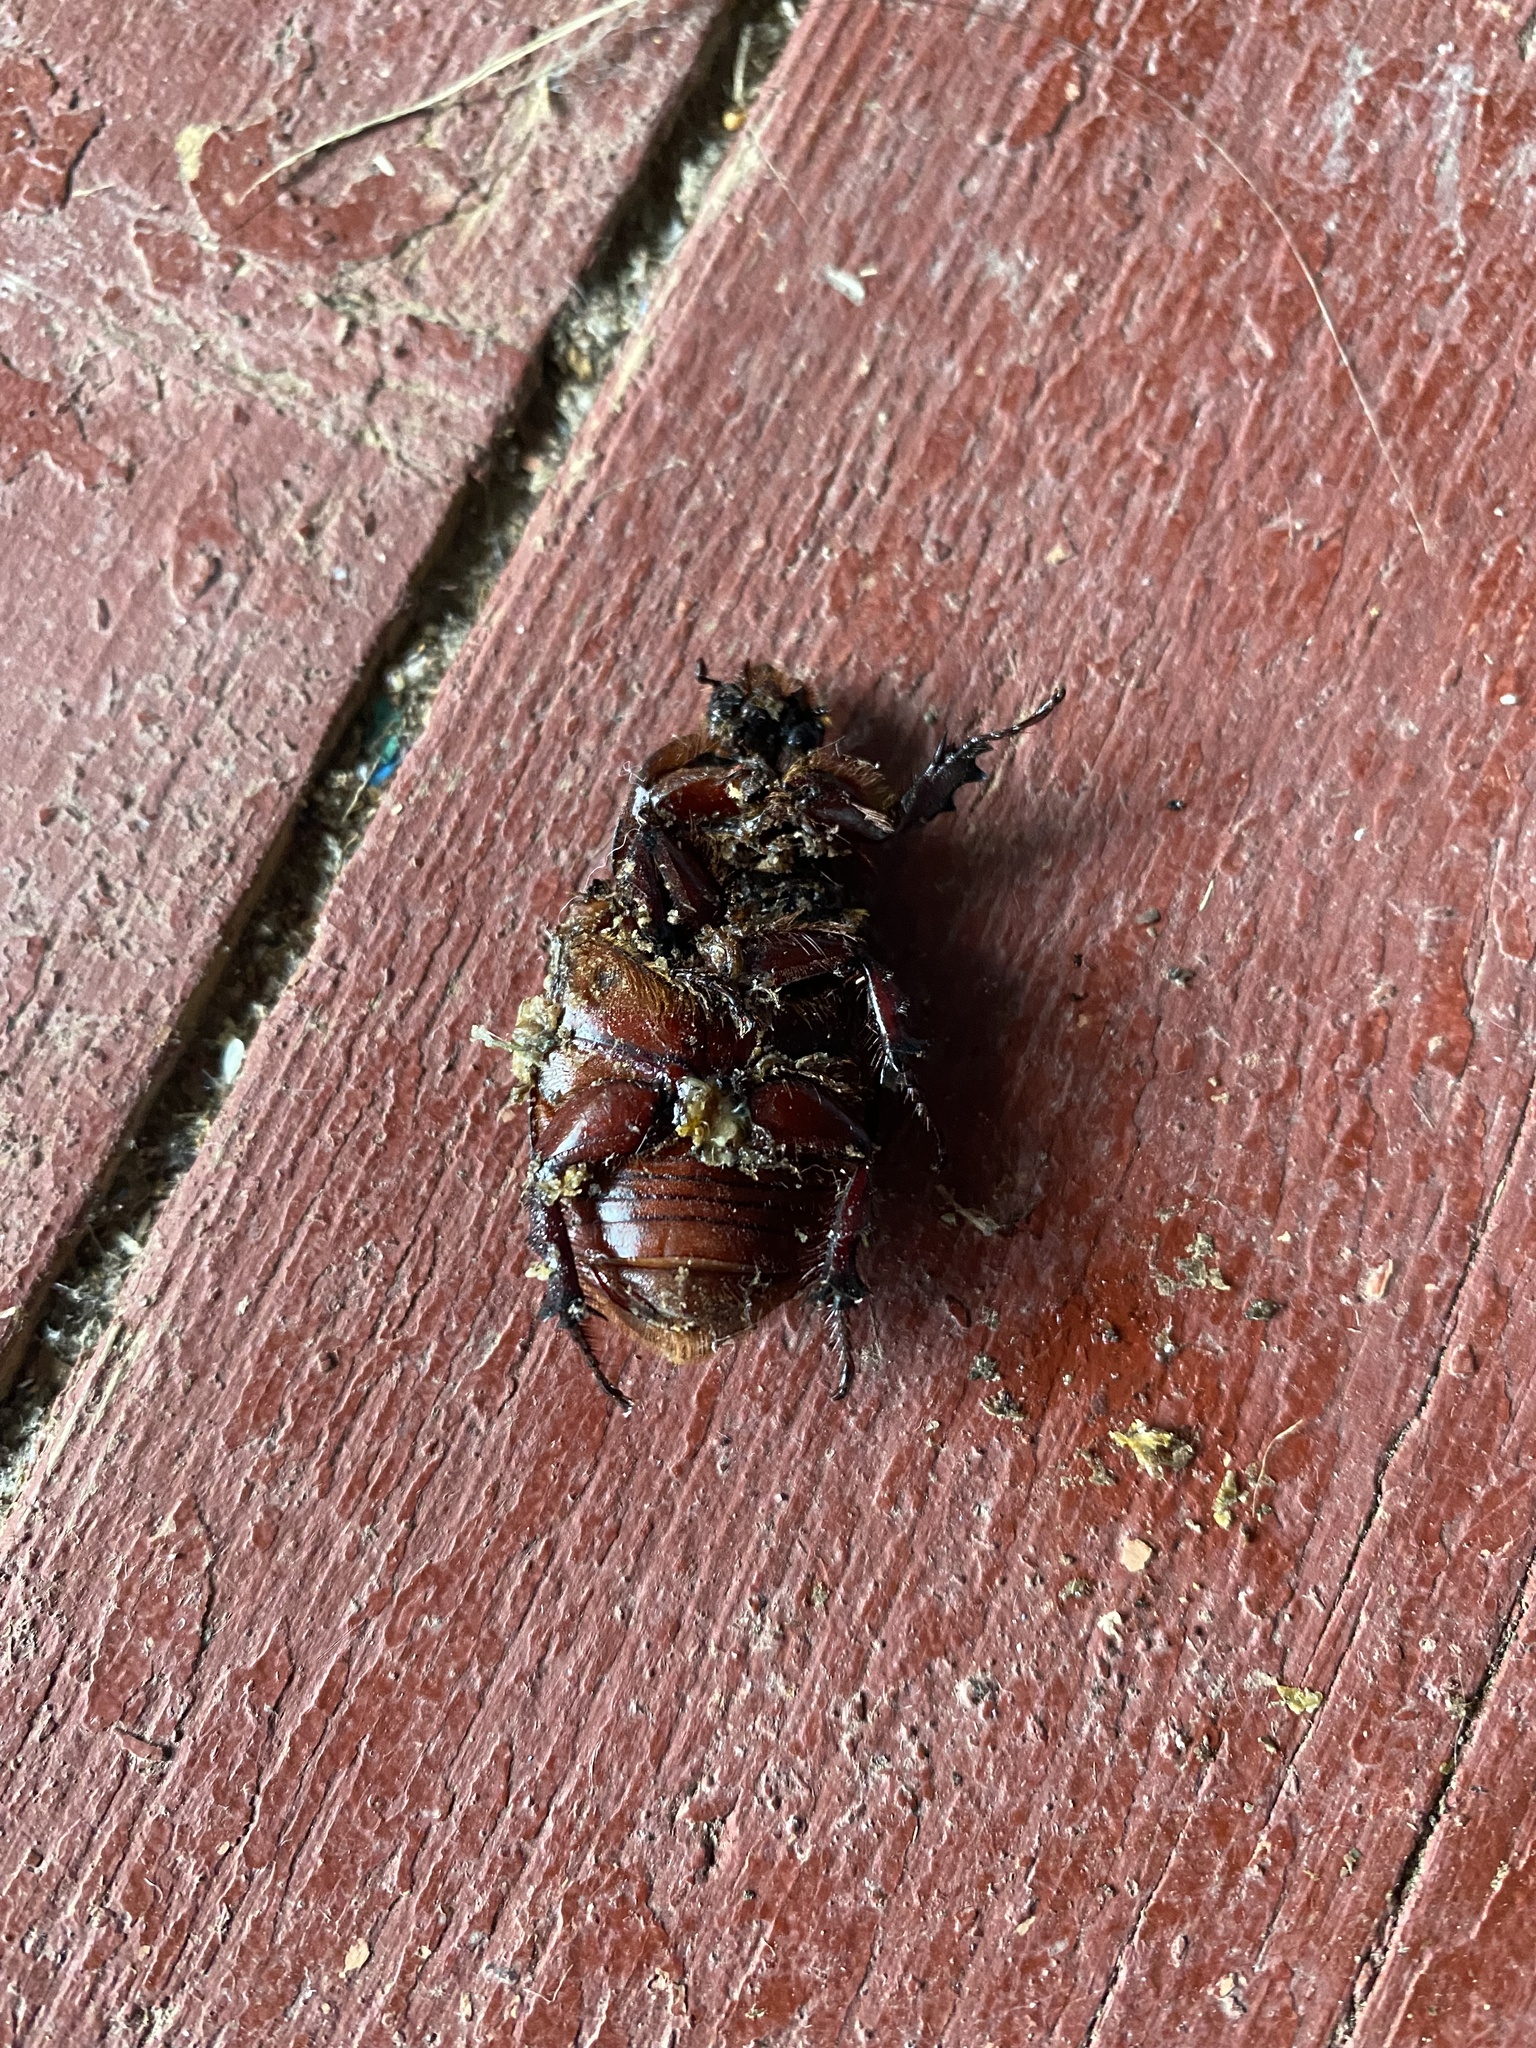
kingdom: Animalia
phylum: Arthropoda
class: Insecta
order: Coleoptera
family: Scarabaeidae
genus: Oryctes
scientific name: Oryctes nasicornis
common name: European rhinoceros beetle
